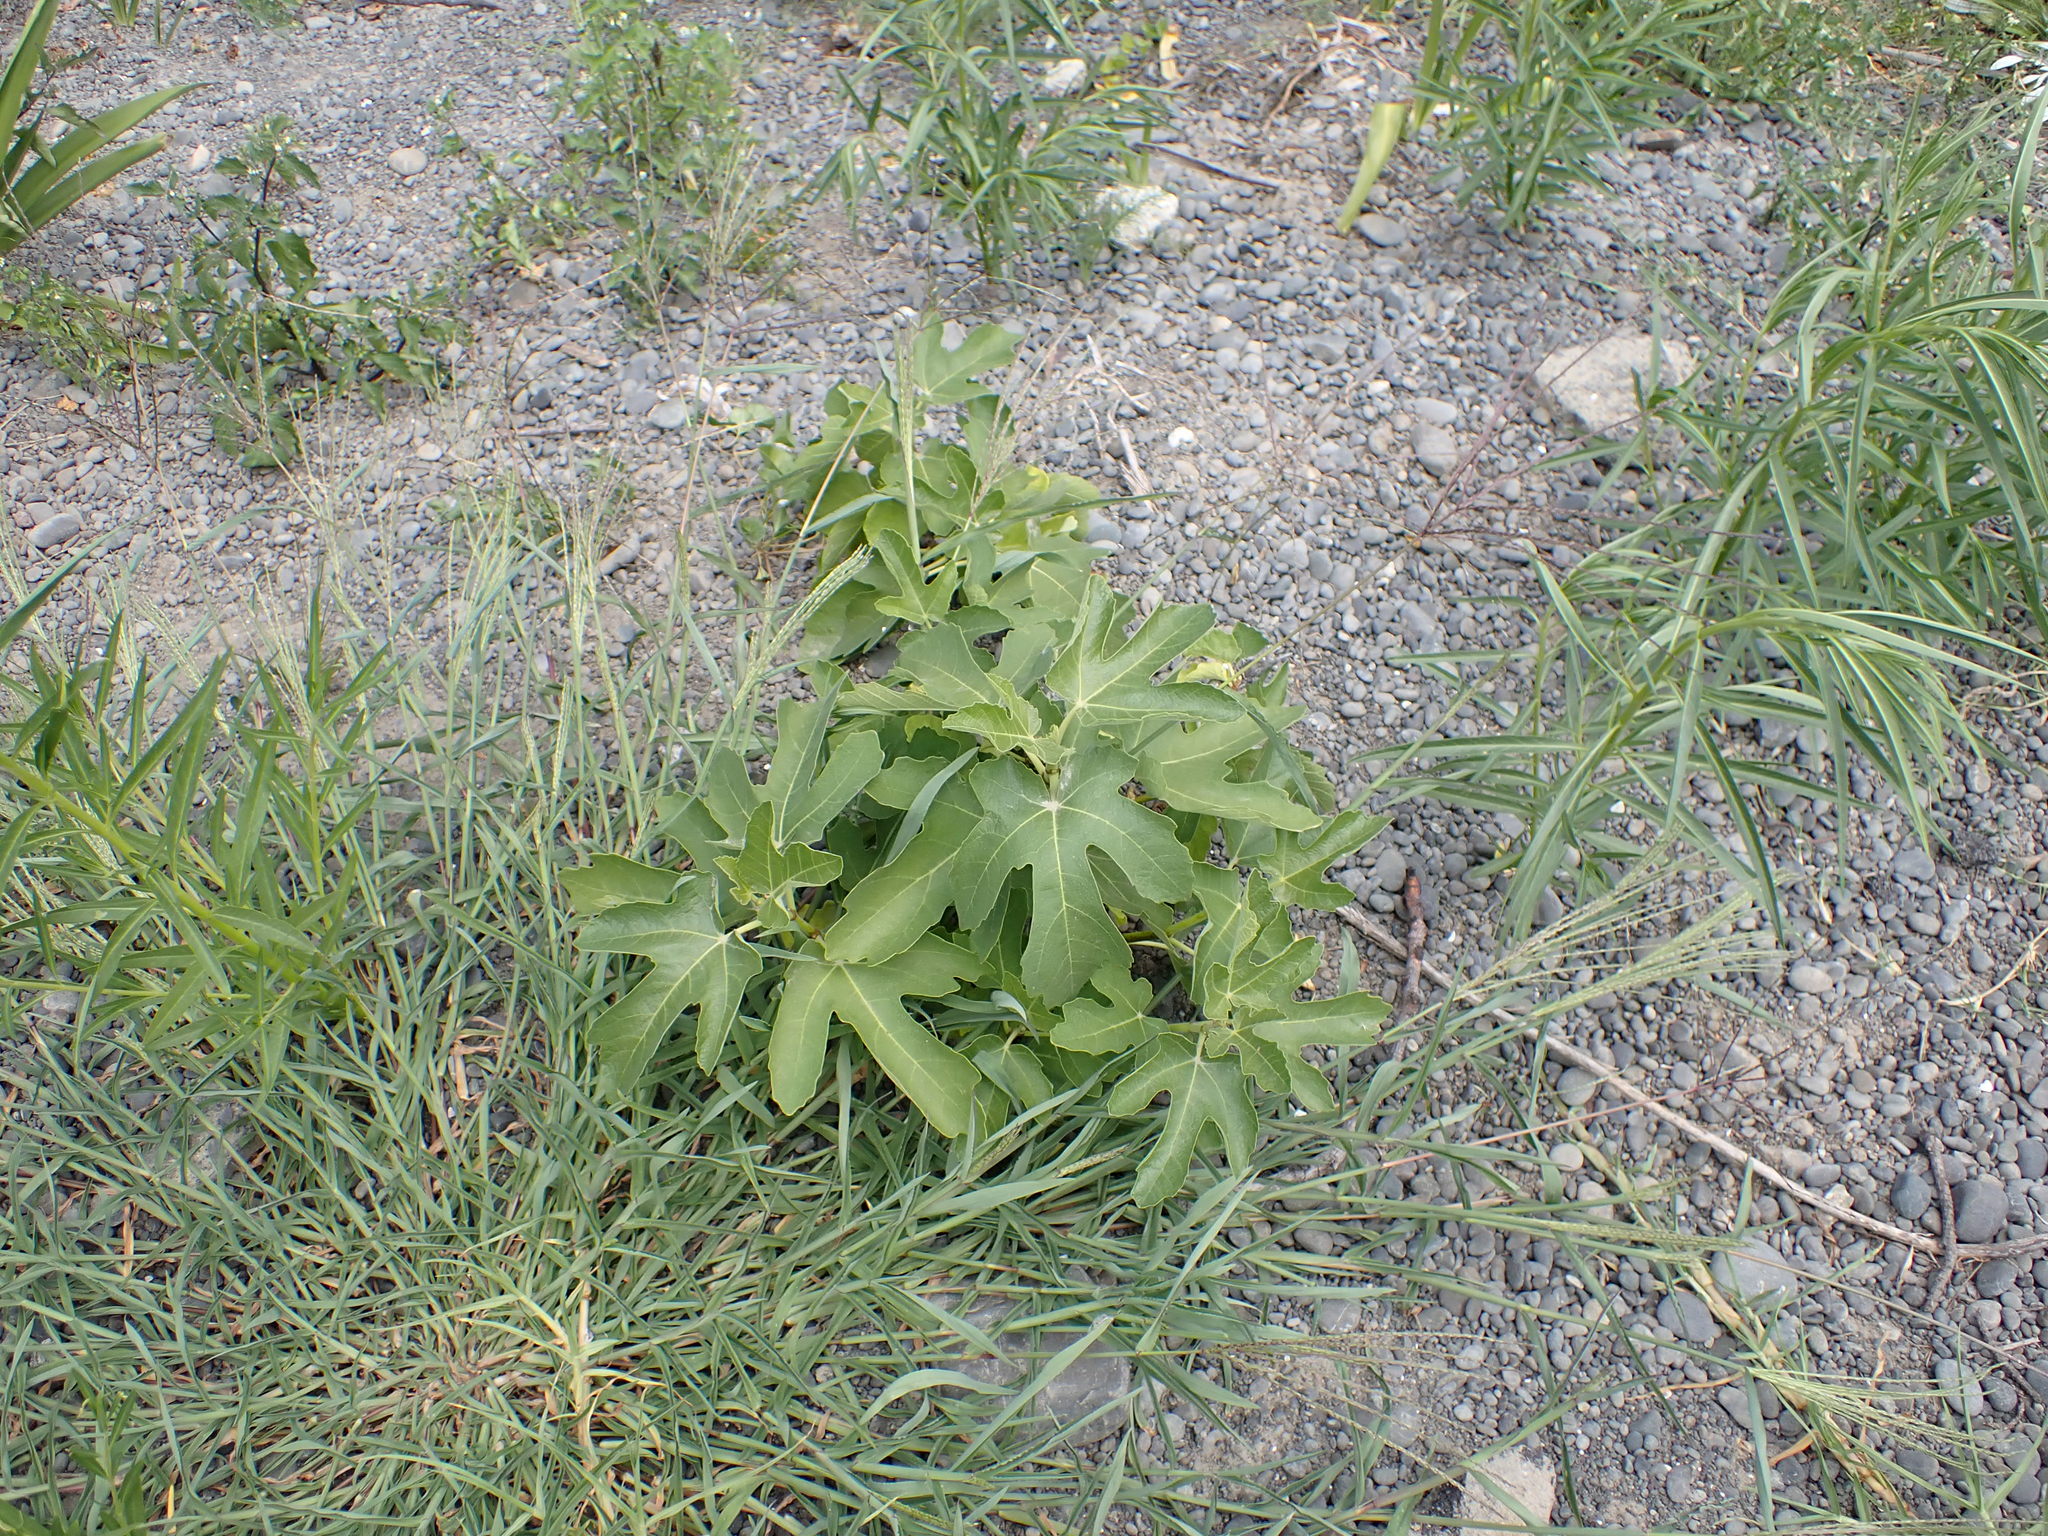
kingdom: Plantae
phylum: Tracheophyta
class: Magnoliopsida
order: Rosales
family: Moraceae
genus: Ficus
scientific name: Ficus carica
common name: Fig
